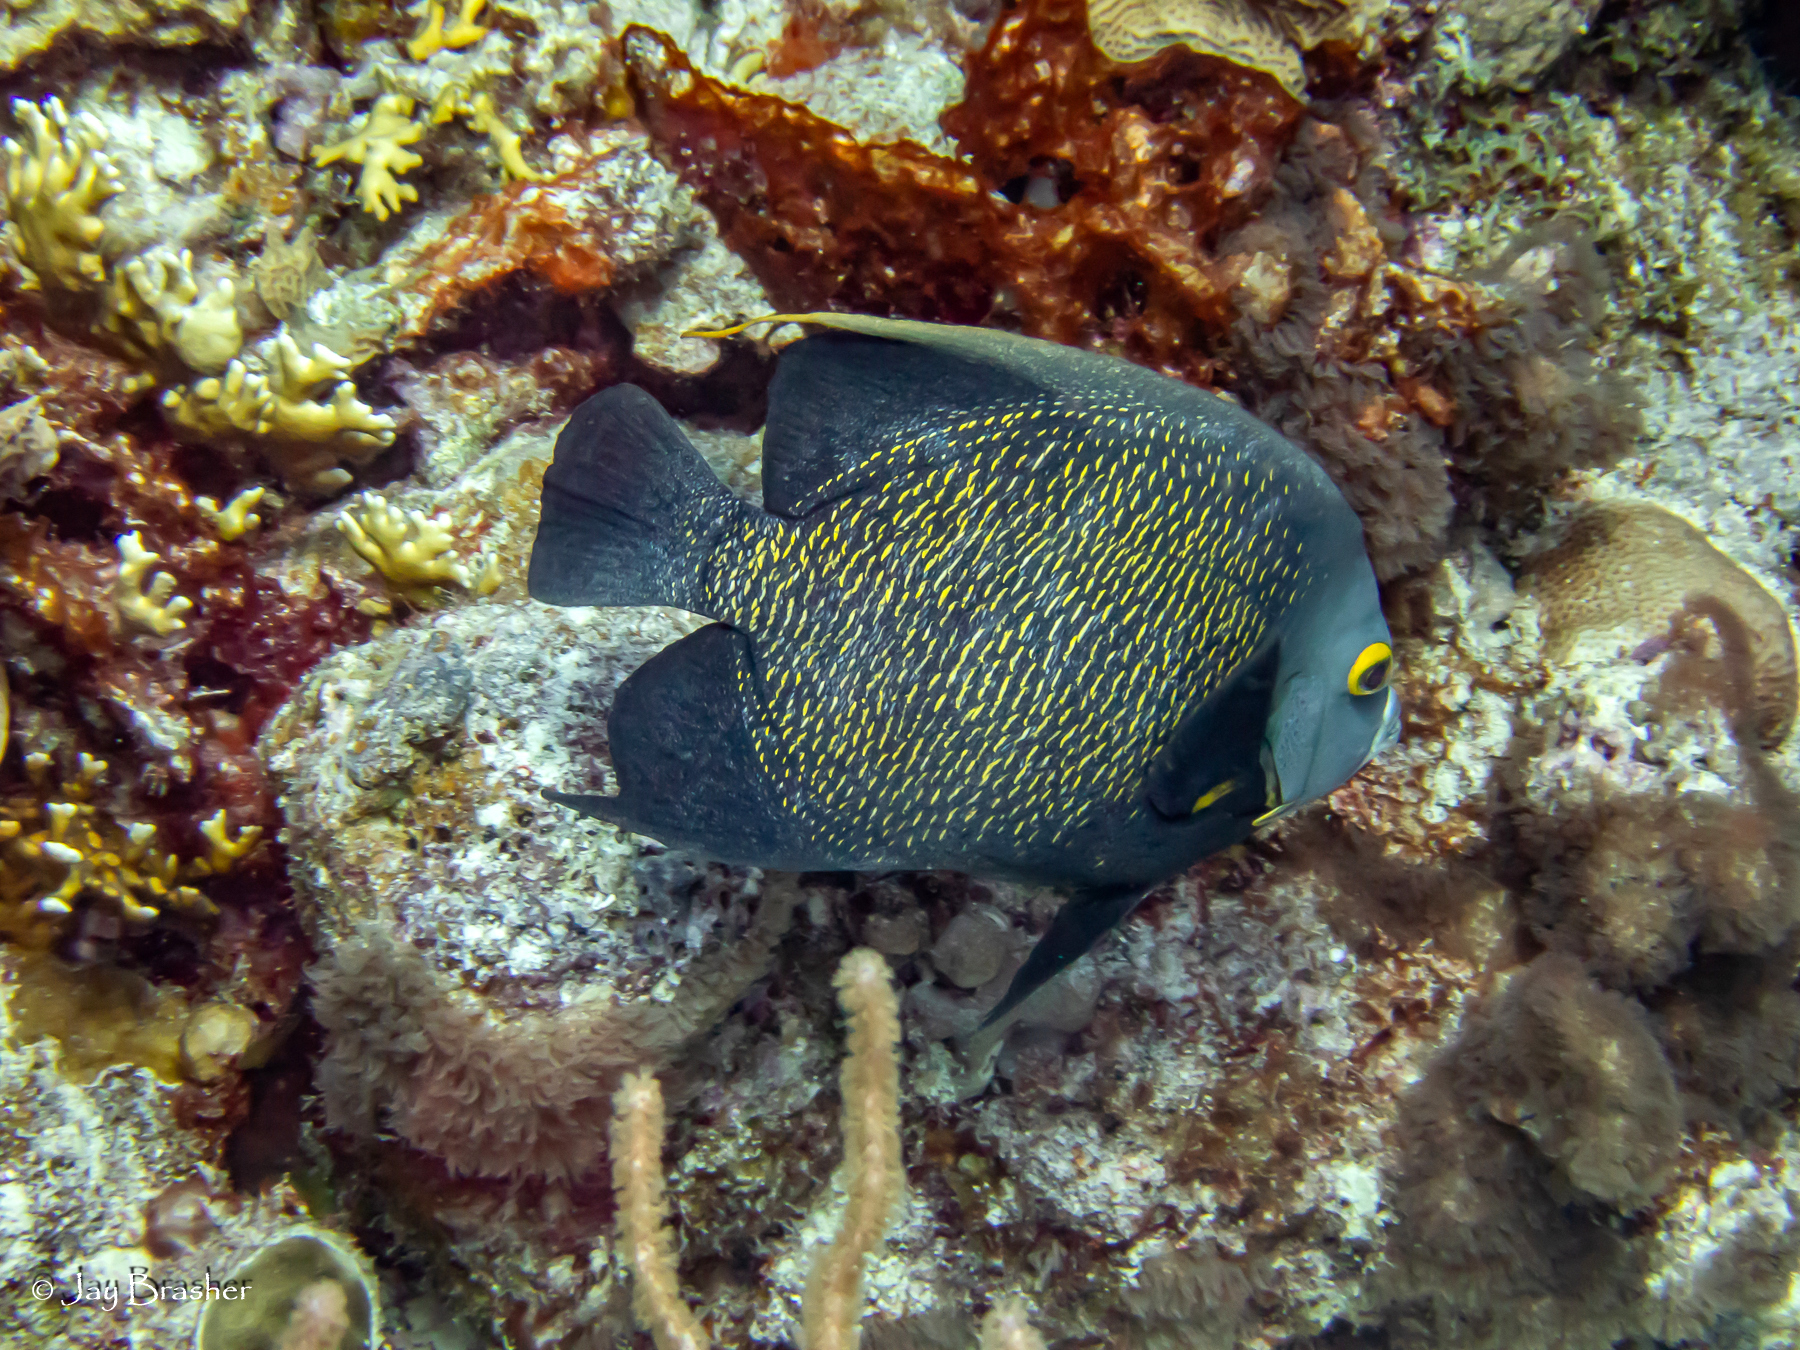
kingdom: Animalia
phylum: Chordata
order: Perciformes
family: Pomacanthidae
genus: Pomacanthus
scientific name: Pomacanthus paru
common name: French angelfish
